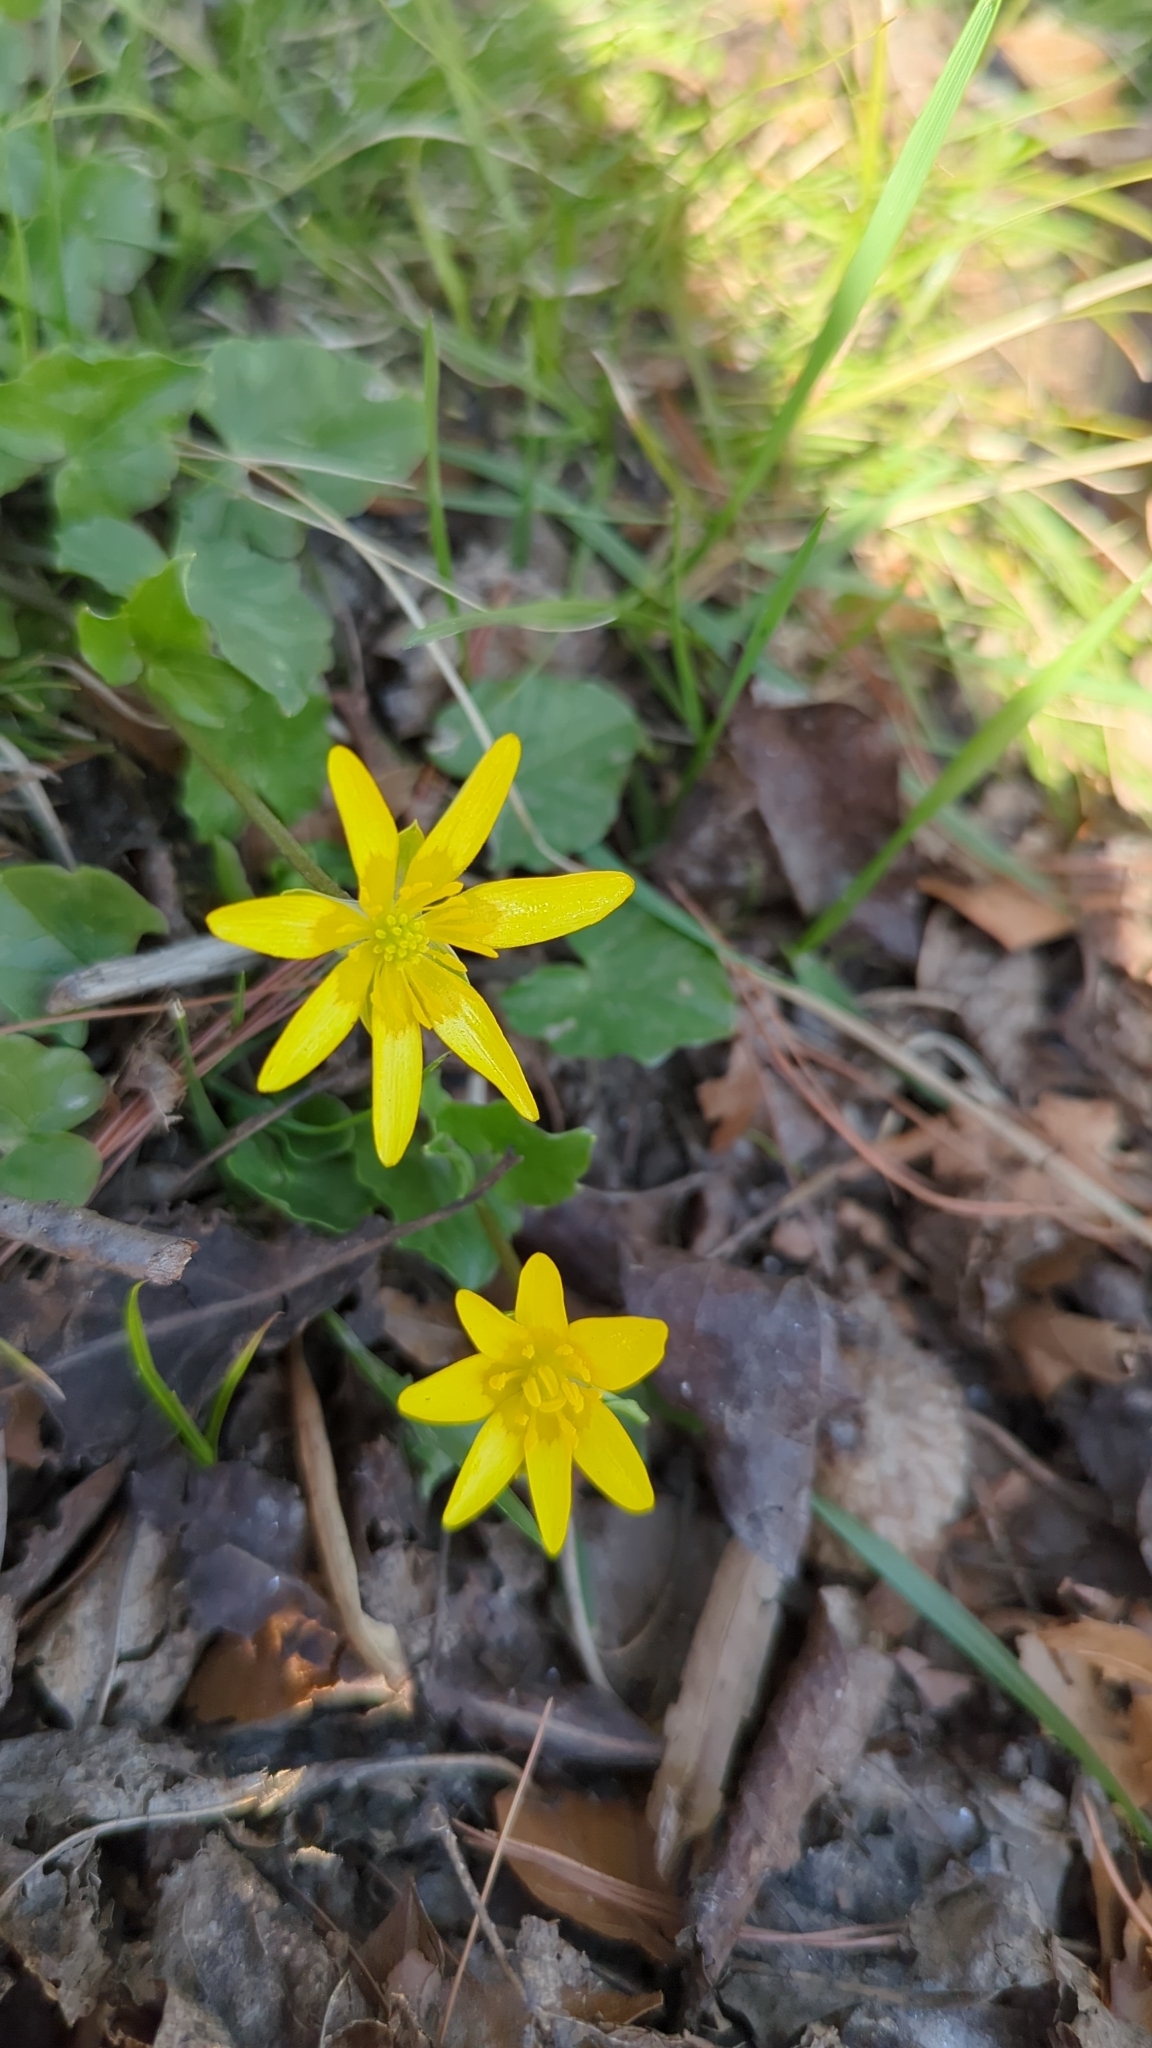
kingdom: Plantae
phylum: Tracheophyta
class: Magnoliopsida
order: Ranunculales
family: Ranunculaceae
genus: Ficaria
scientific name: Ficaria verna
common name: Lesser celandine
